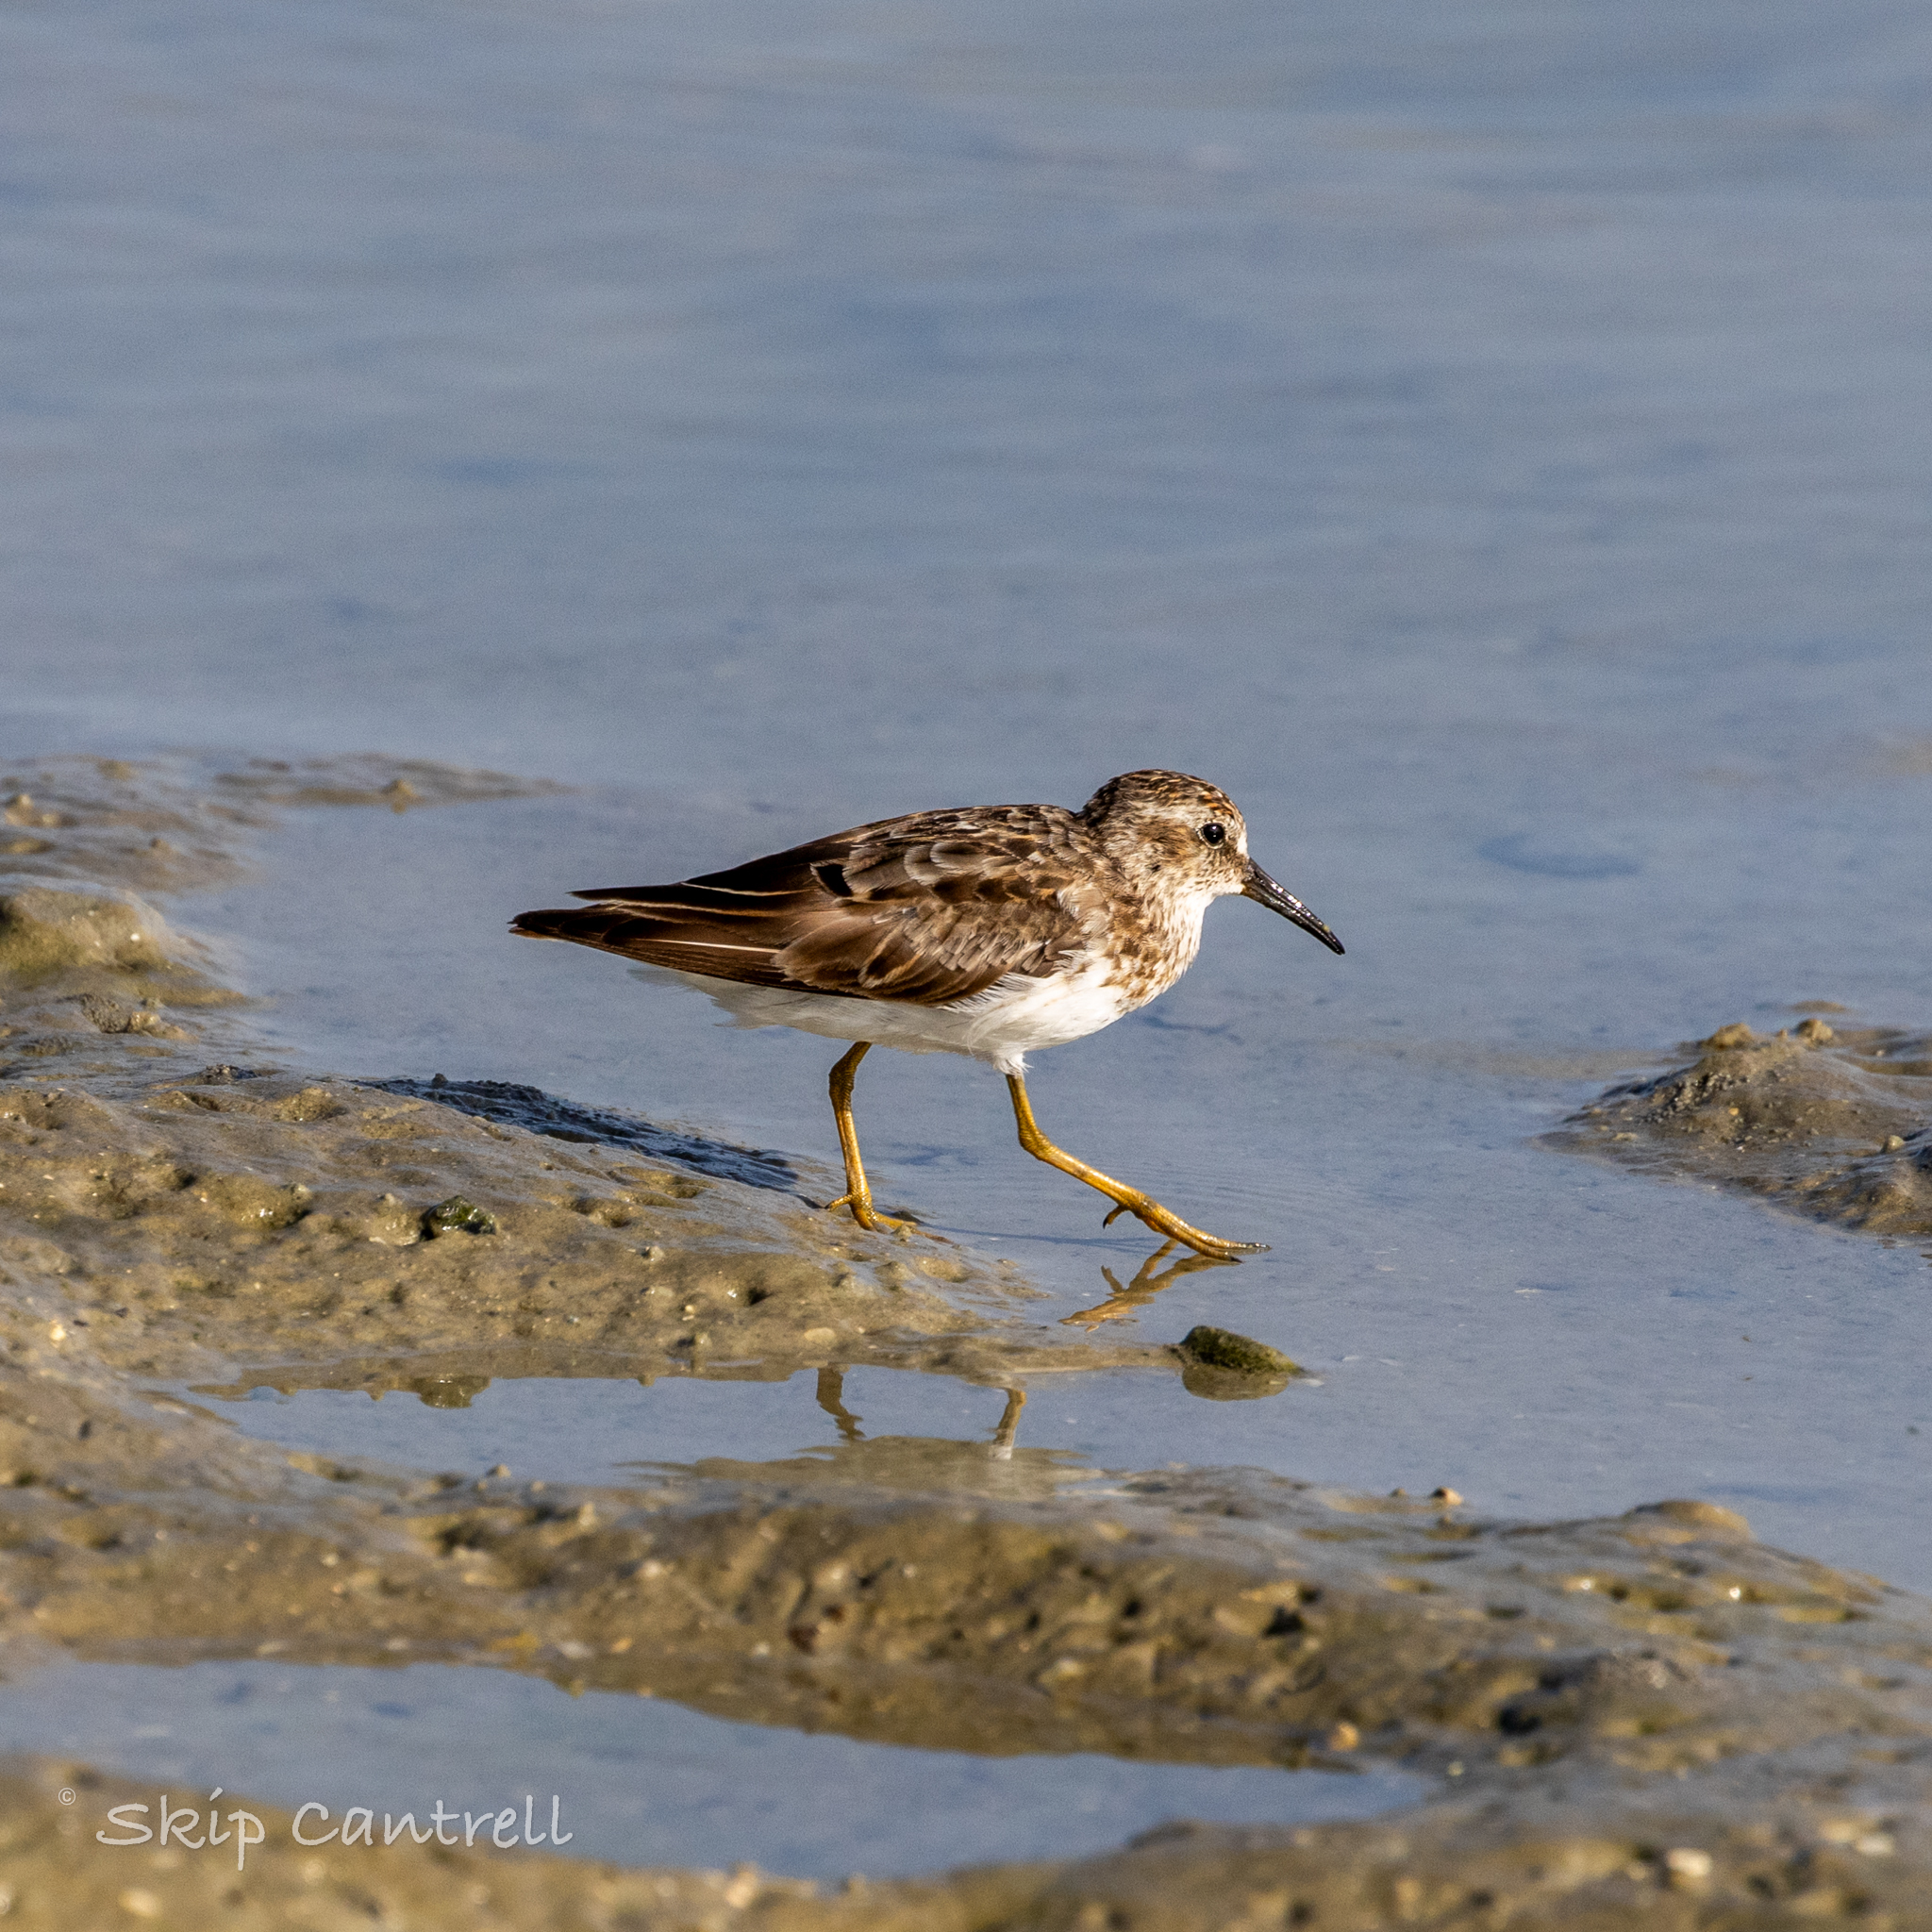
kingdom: Animalia
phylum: Chordata
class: Aves
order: Charadriiformes
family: Scolopacidae
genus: Calidris
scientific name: Calidris minutilla
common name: Least sandpiper
